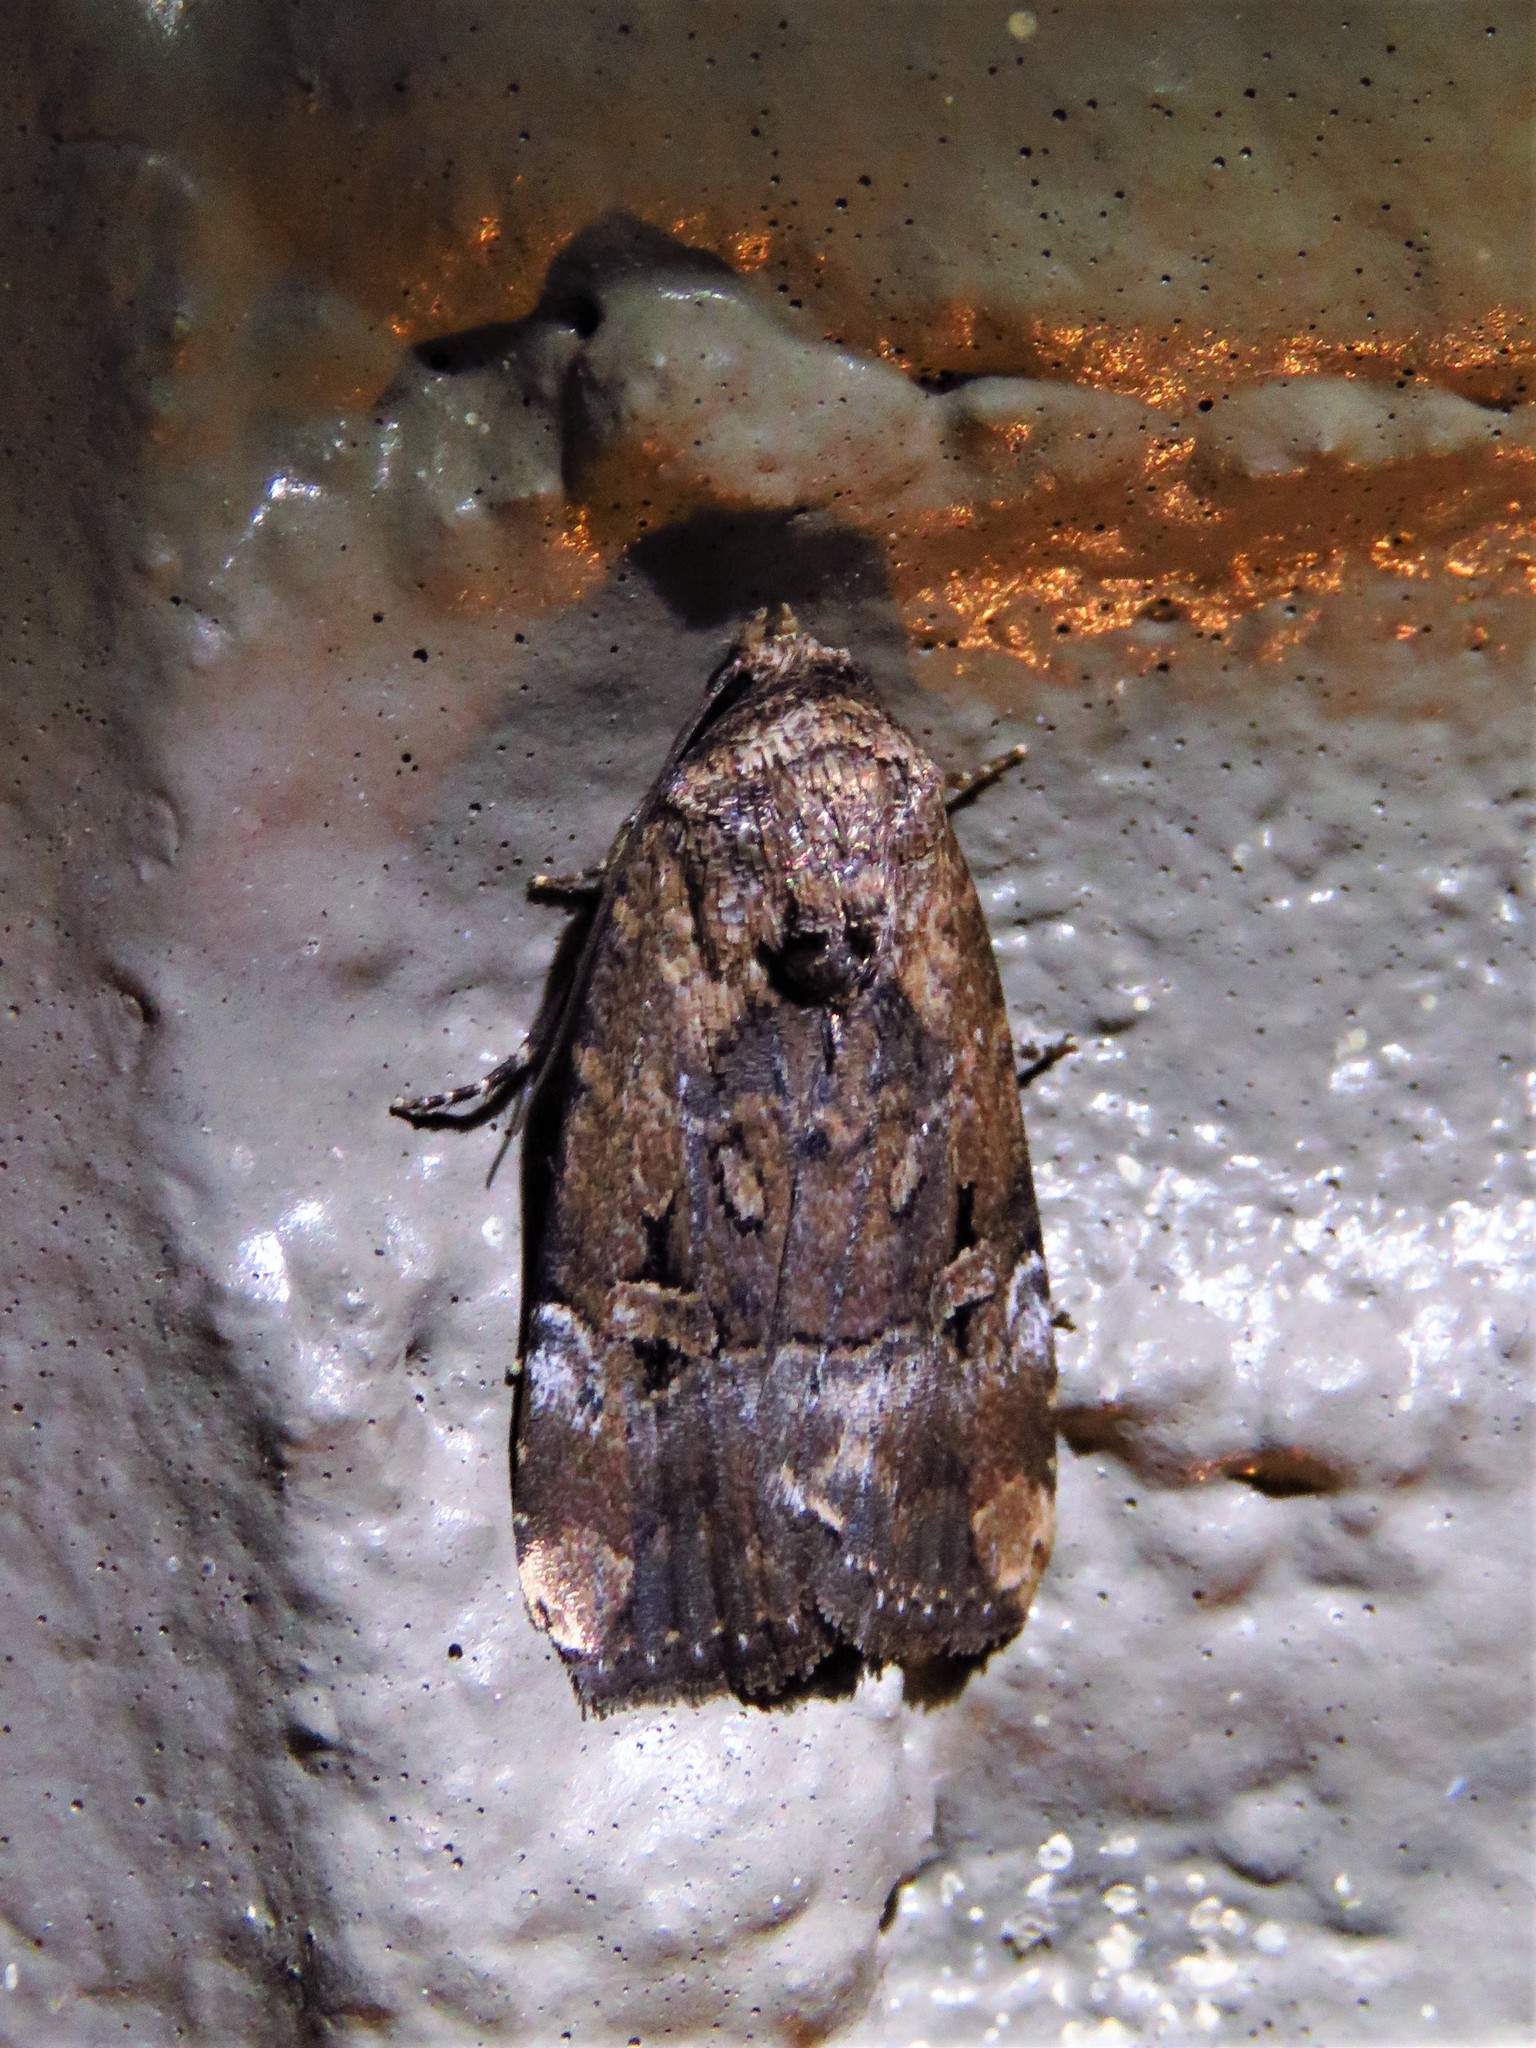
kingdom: Animalia
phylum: Arthropoda
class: Insecta
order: Lepidoptera
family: Noctuidae
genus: Elaphria
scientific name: Elaphria chalcedonia
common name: Chalcedony midget
